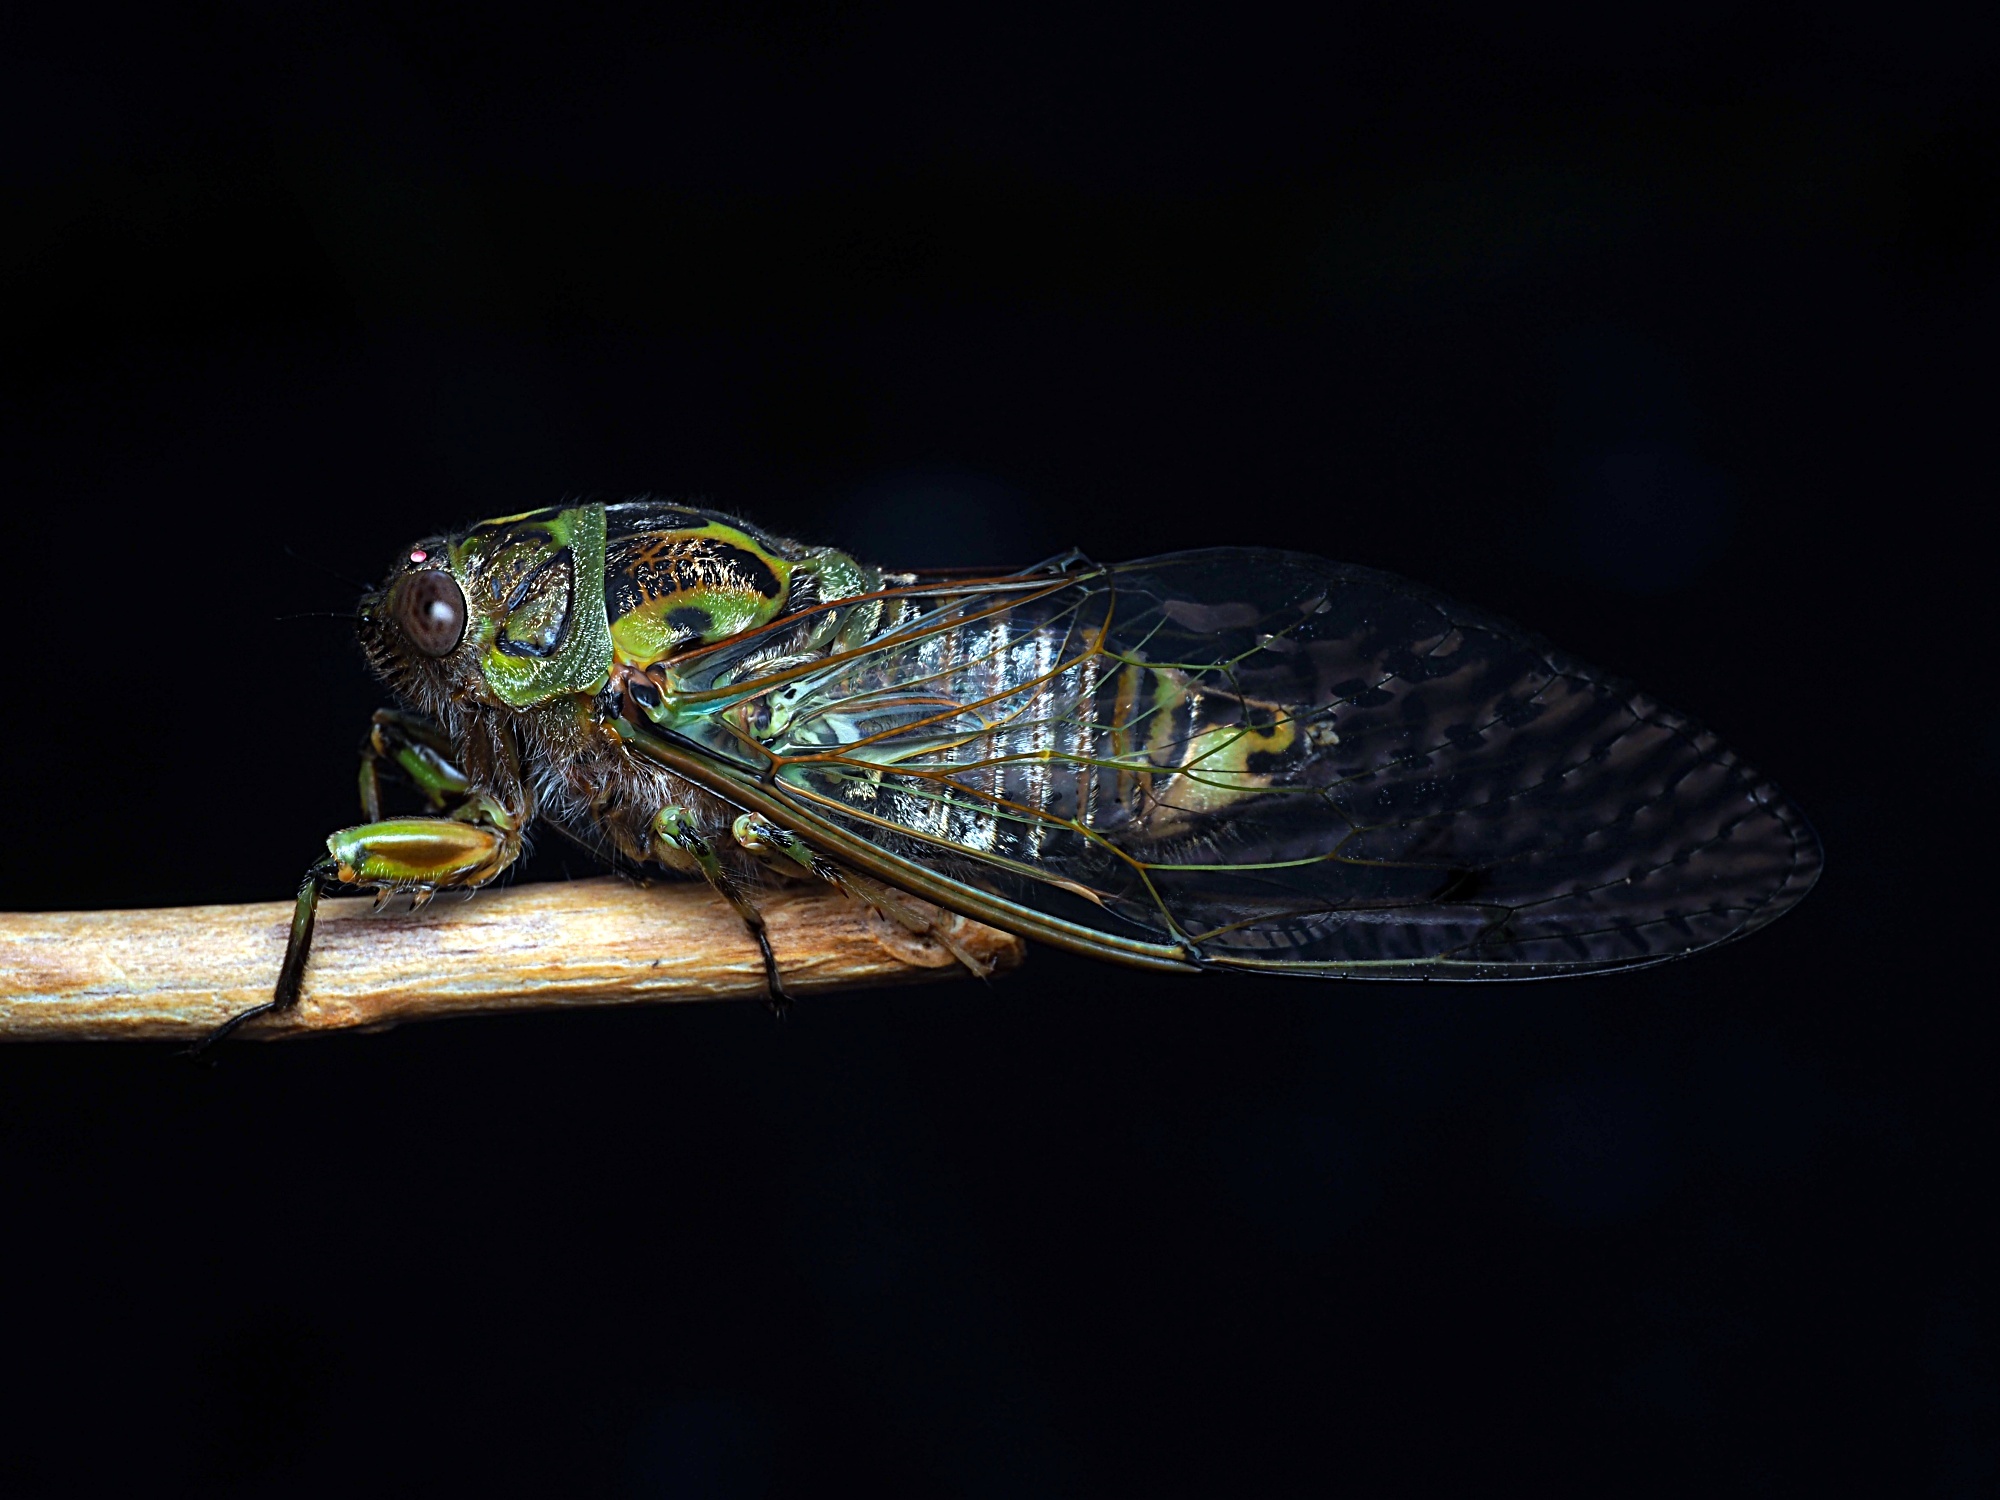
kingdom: Animalia
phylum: Arthropoda
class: Insecta
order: Hemiptera
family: Cicadidae
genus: Amphipsalta
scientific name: Amphipsalta zelandica
